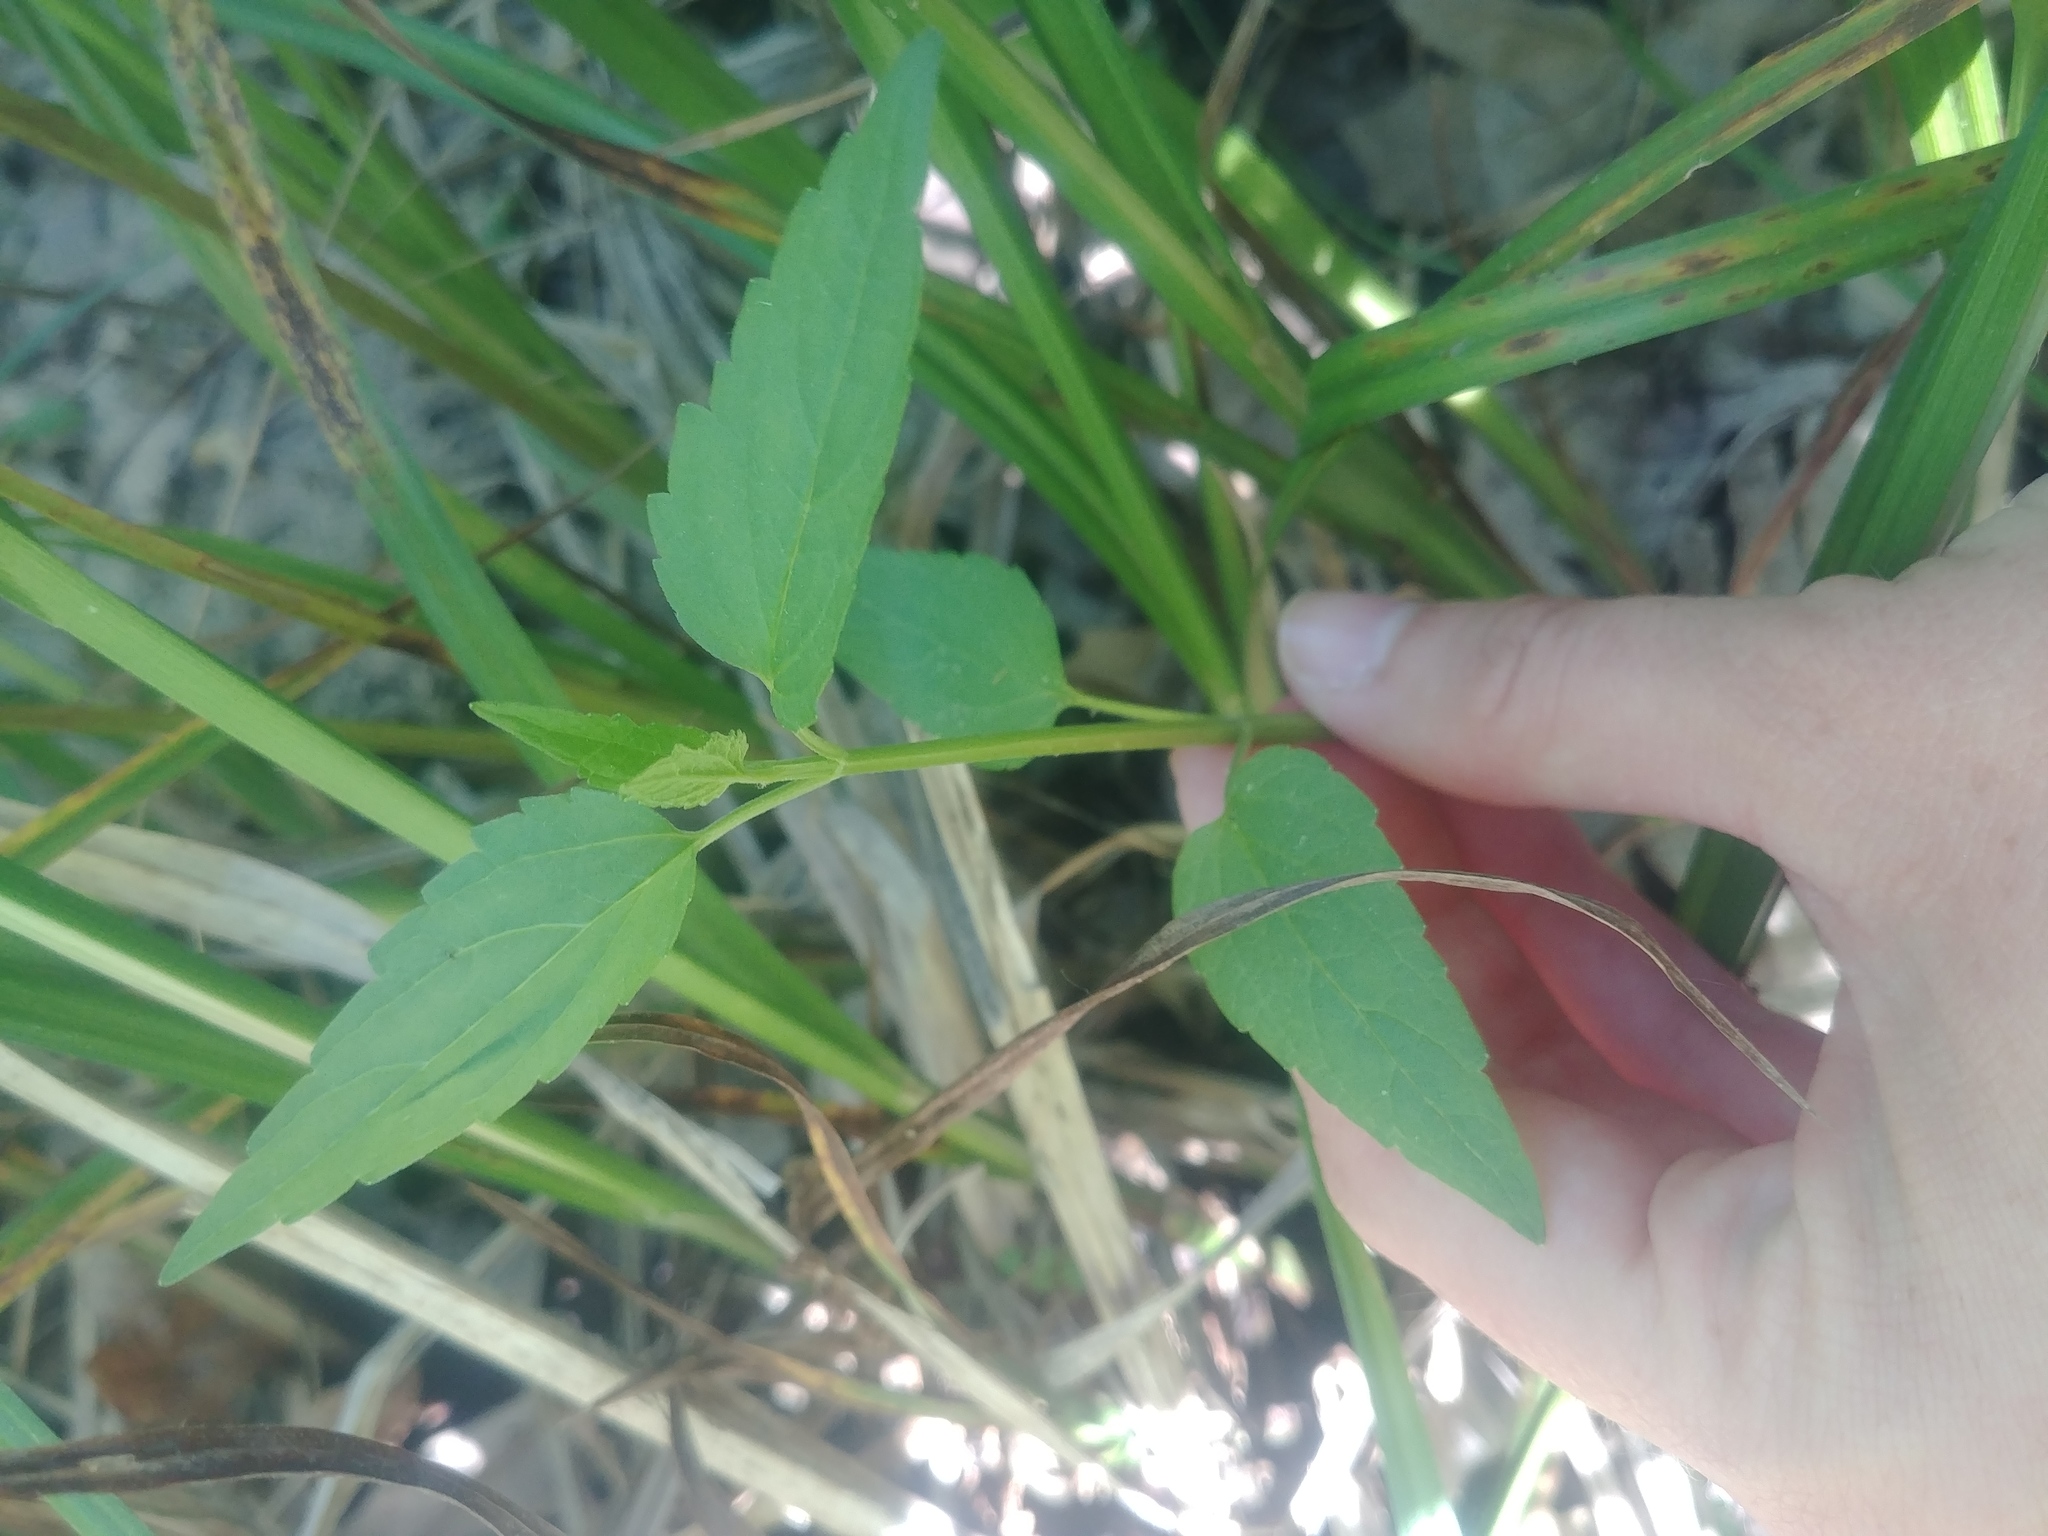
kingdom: Plantae
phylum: Tracheophyta
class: Magnoliopsida
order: Lamiales
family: Lamiaceae
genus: Scutellaria
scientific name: Scutellaria lateriflora
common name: Blue skullcap
